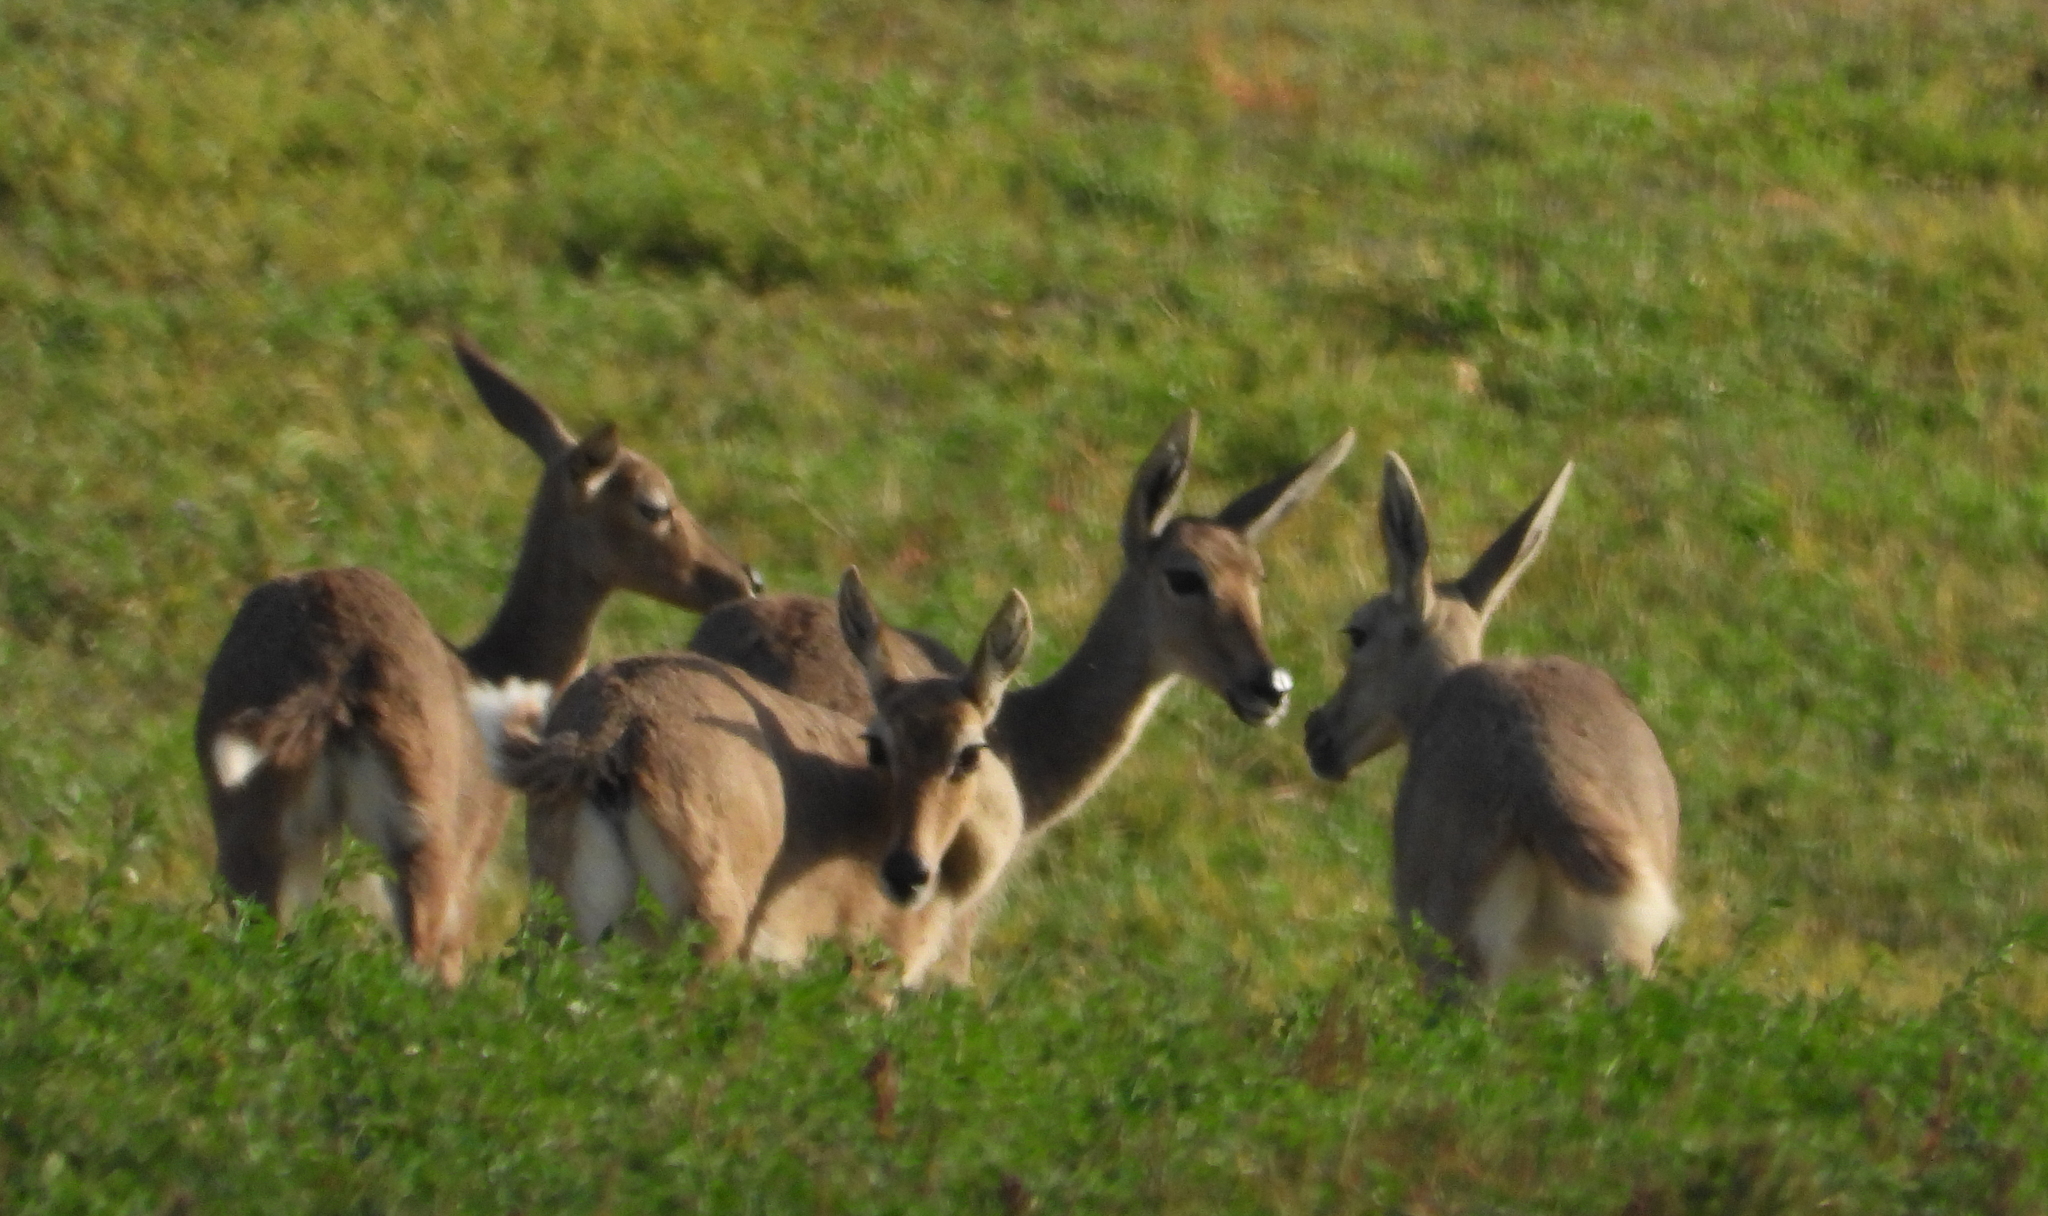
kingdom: Animalia
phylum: Chordata
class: Mammalia
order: Artiodactyla
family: Bovidae
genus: Pelea
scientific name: Pelea capreolus
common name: Common rhebok
